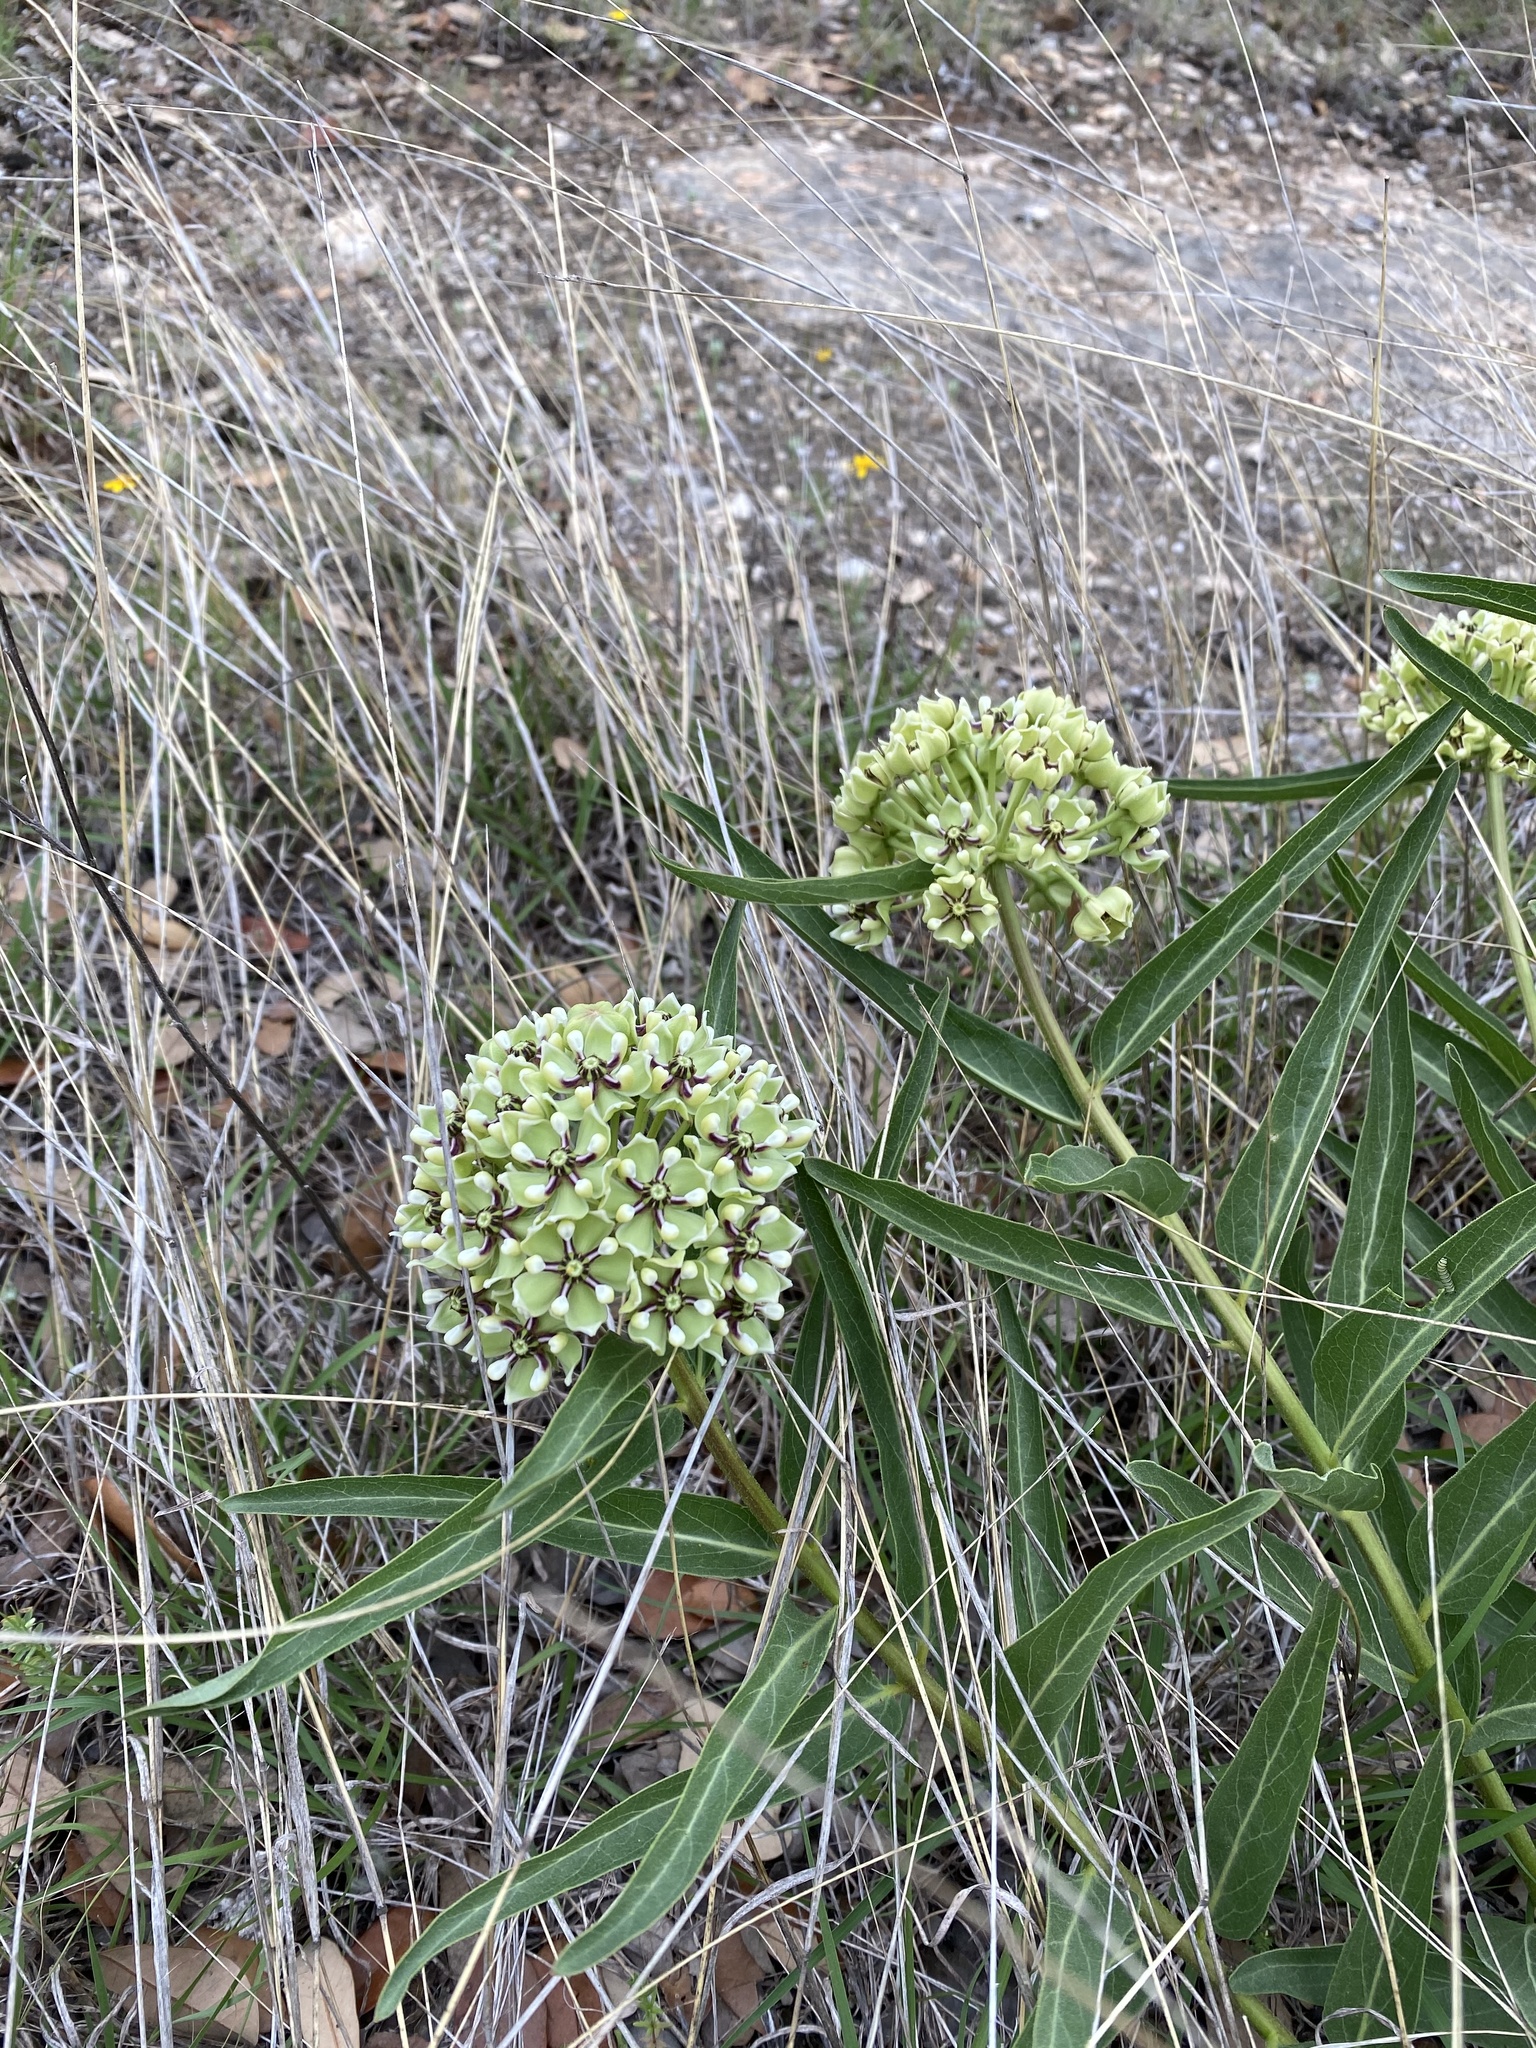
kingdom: Plantae
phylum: Tracheophyta
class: Magnoliopsida
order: Gentianales
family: Apocynaceae
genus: Asclepias
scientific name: Asclepias asperula
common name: Antelope horns
